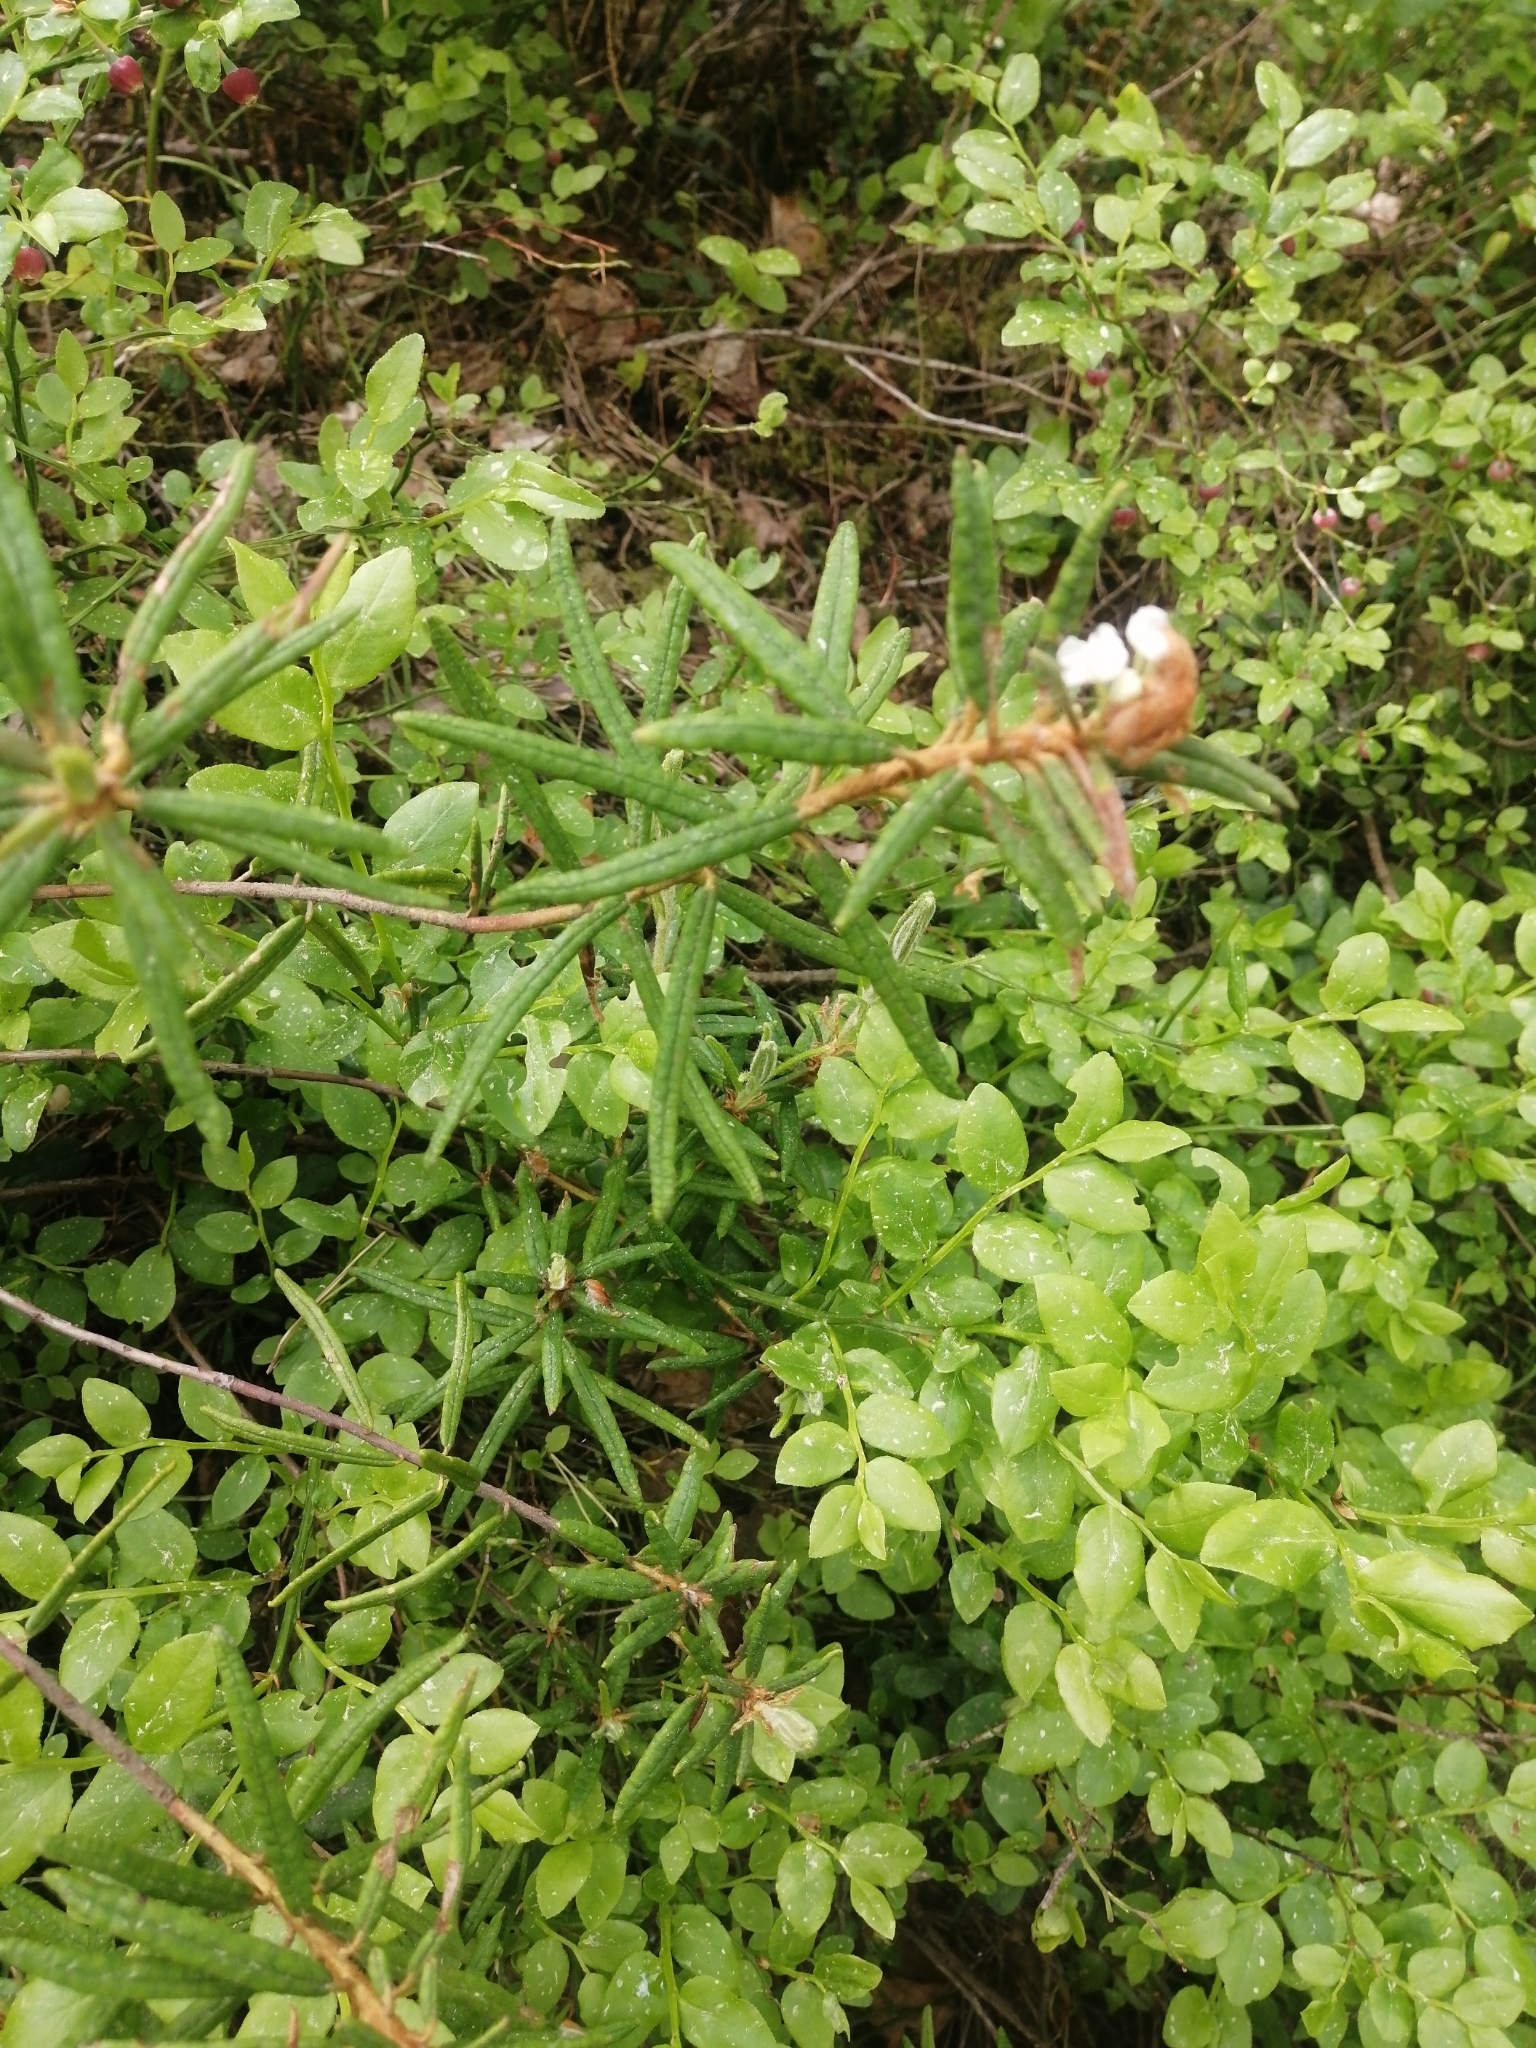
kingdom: Plantae
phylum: Tracheophyta
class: Magnoliopsida
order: Ericales
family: Ericaceae
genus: Rhododendron
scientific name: Rhododendron tomentosum
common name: Marsh labrador tea
